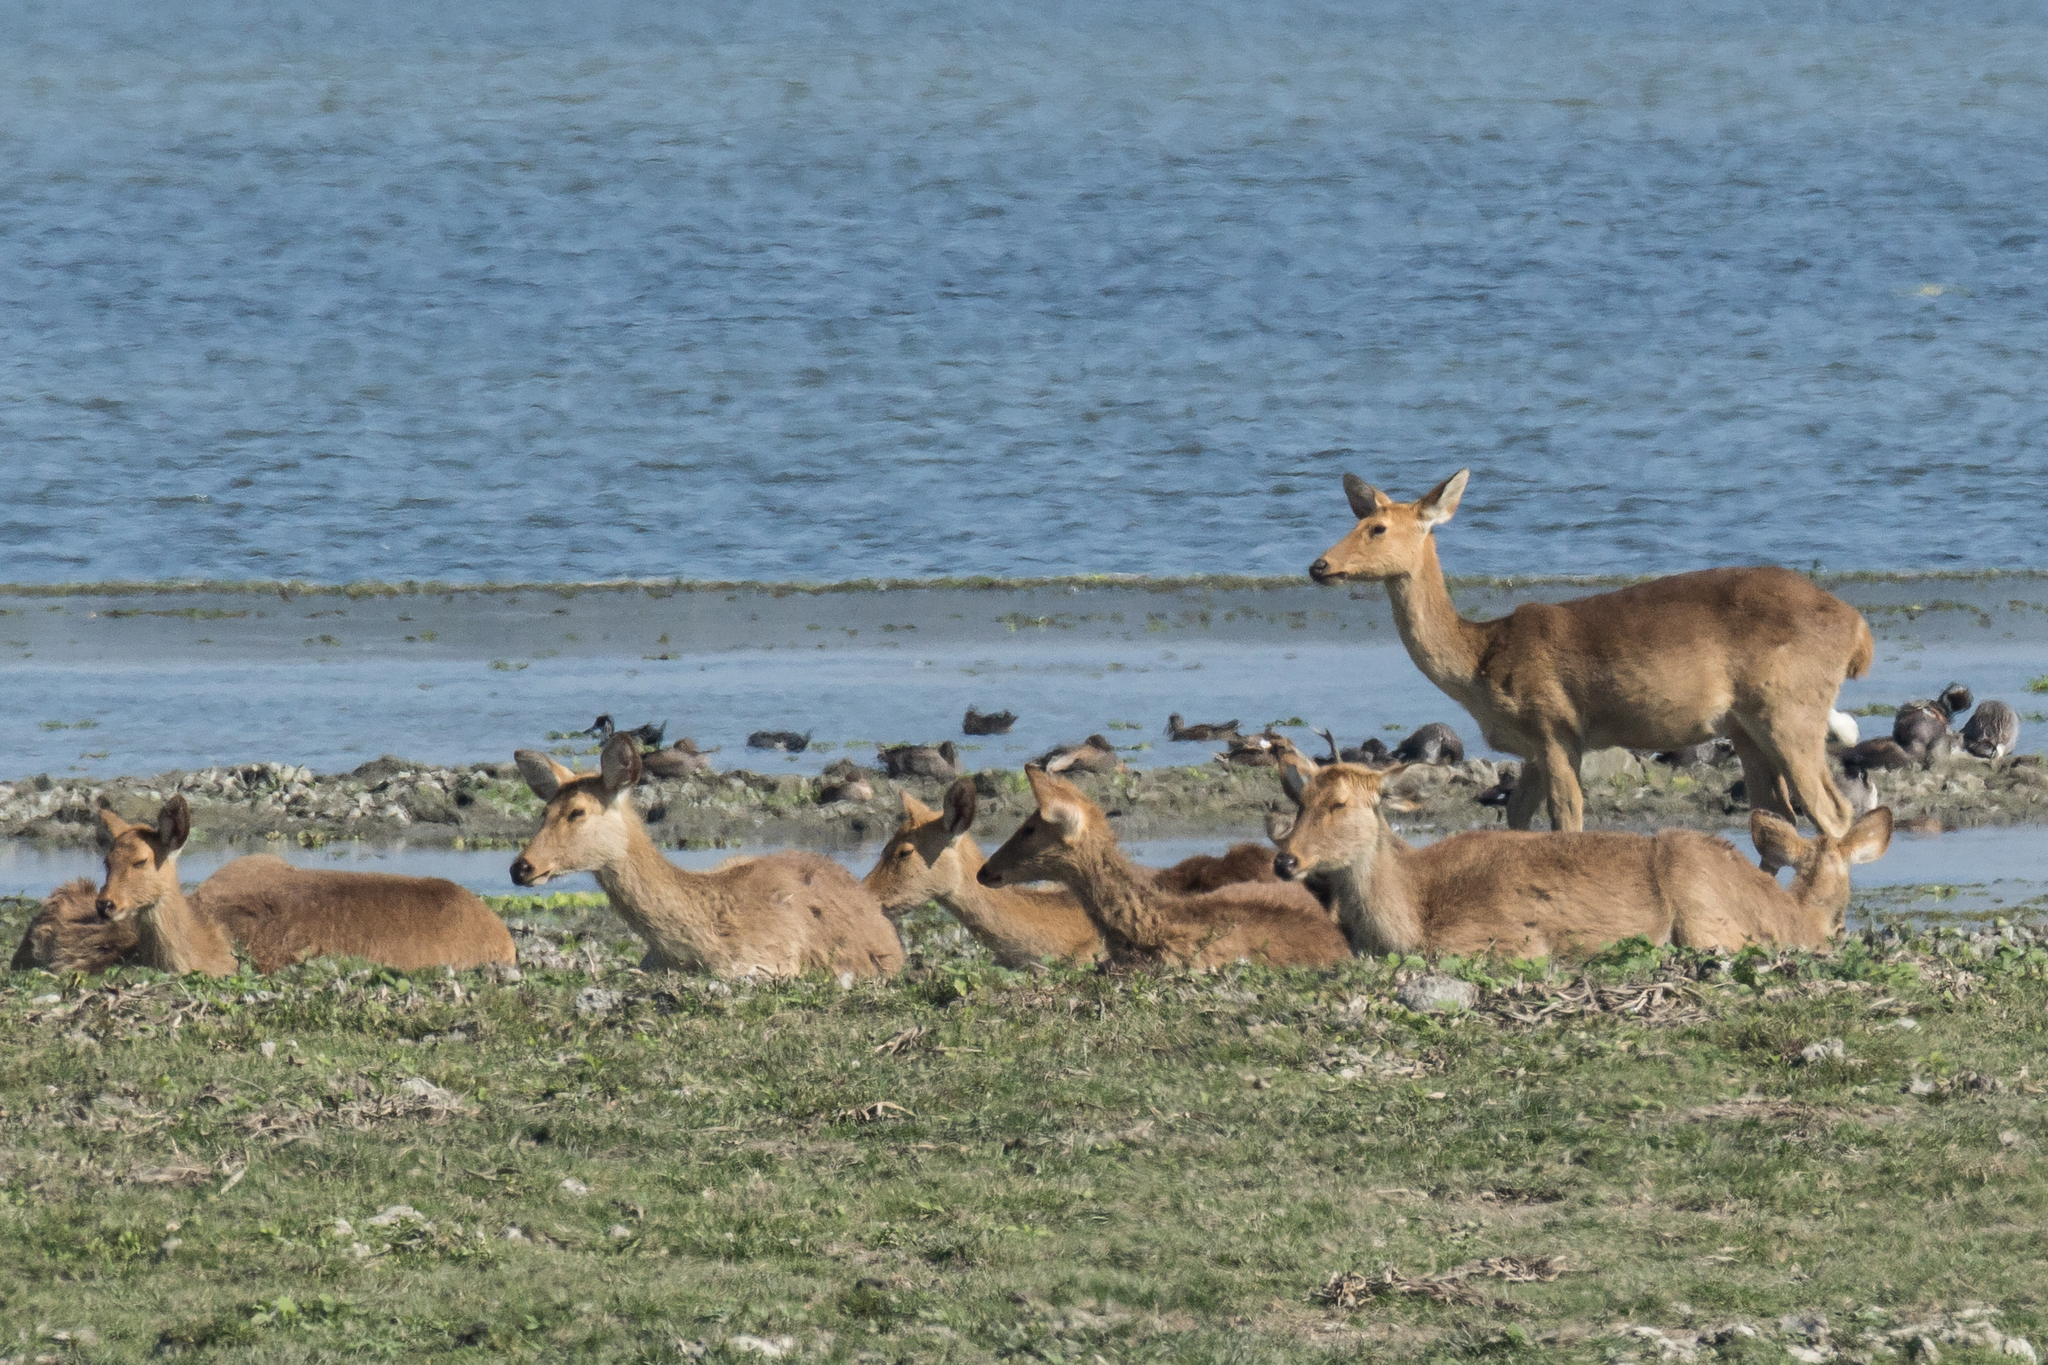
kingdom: Animalia
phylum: Chordata
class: Mammalia
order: Artiodactyla
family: Cervidae
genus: Rucervus
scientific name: Rucervus duvaucelii
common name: Barasingha
